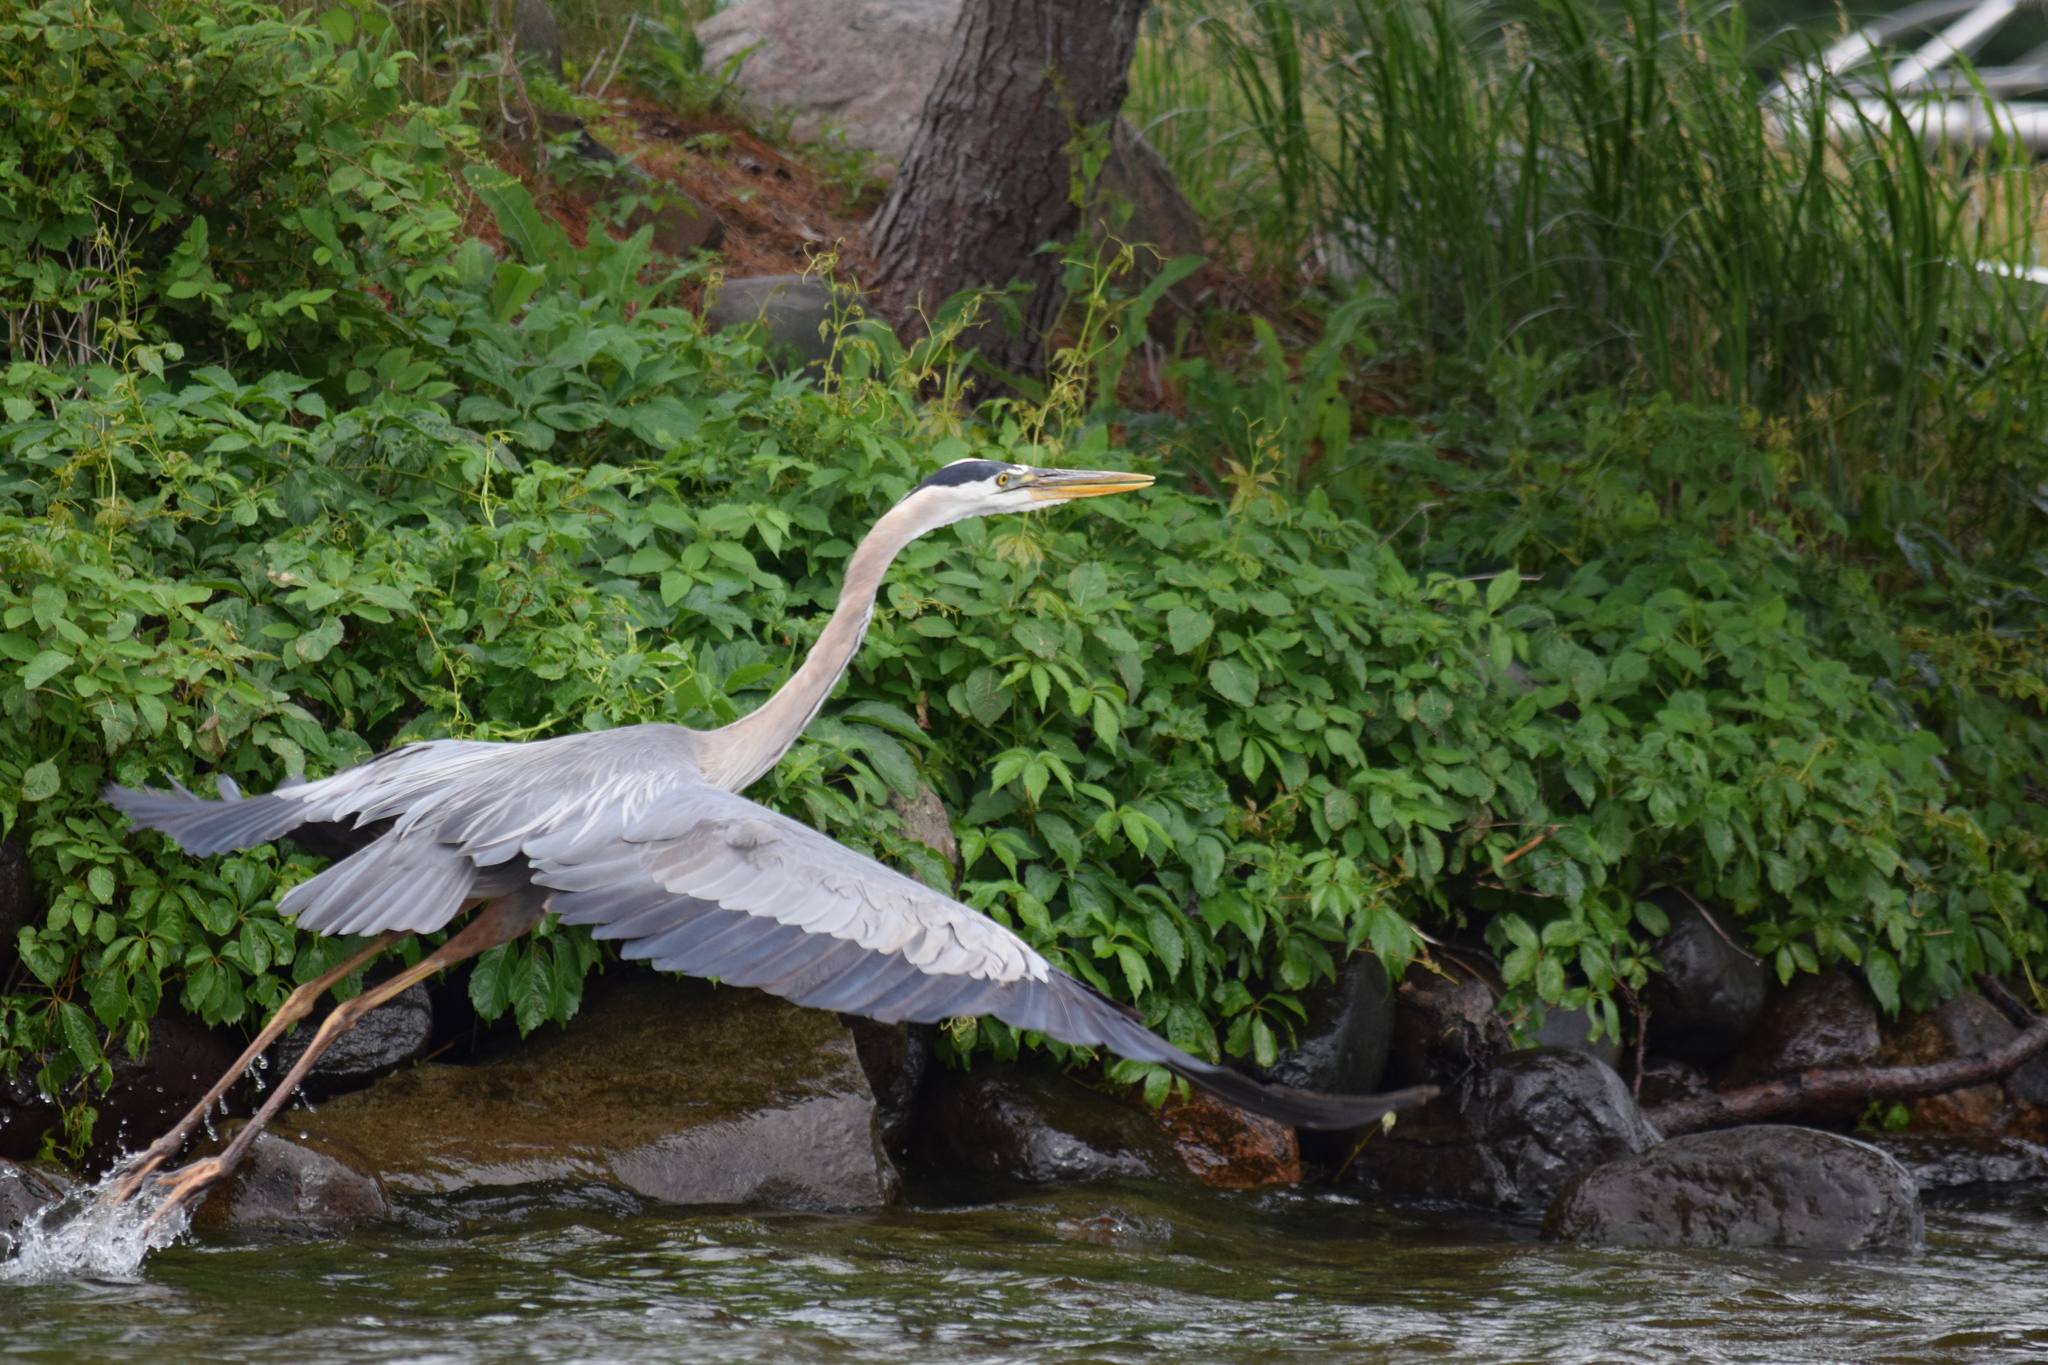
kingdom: Animalia
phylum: Chordata
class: Aves
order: Pelecaniformes
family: Ardeidae
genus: Ardea
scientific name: Ardea herodias
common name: Great blue heron
